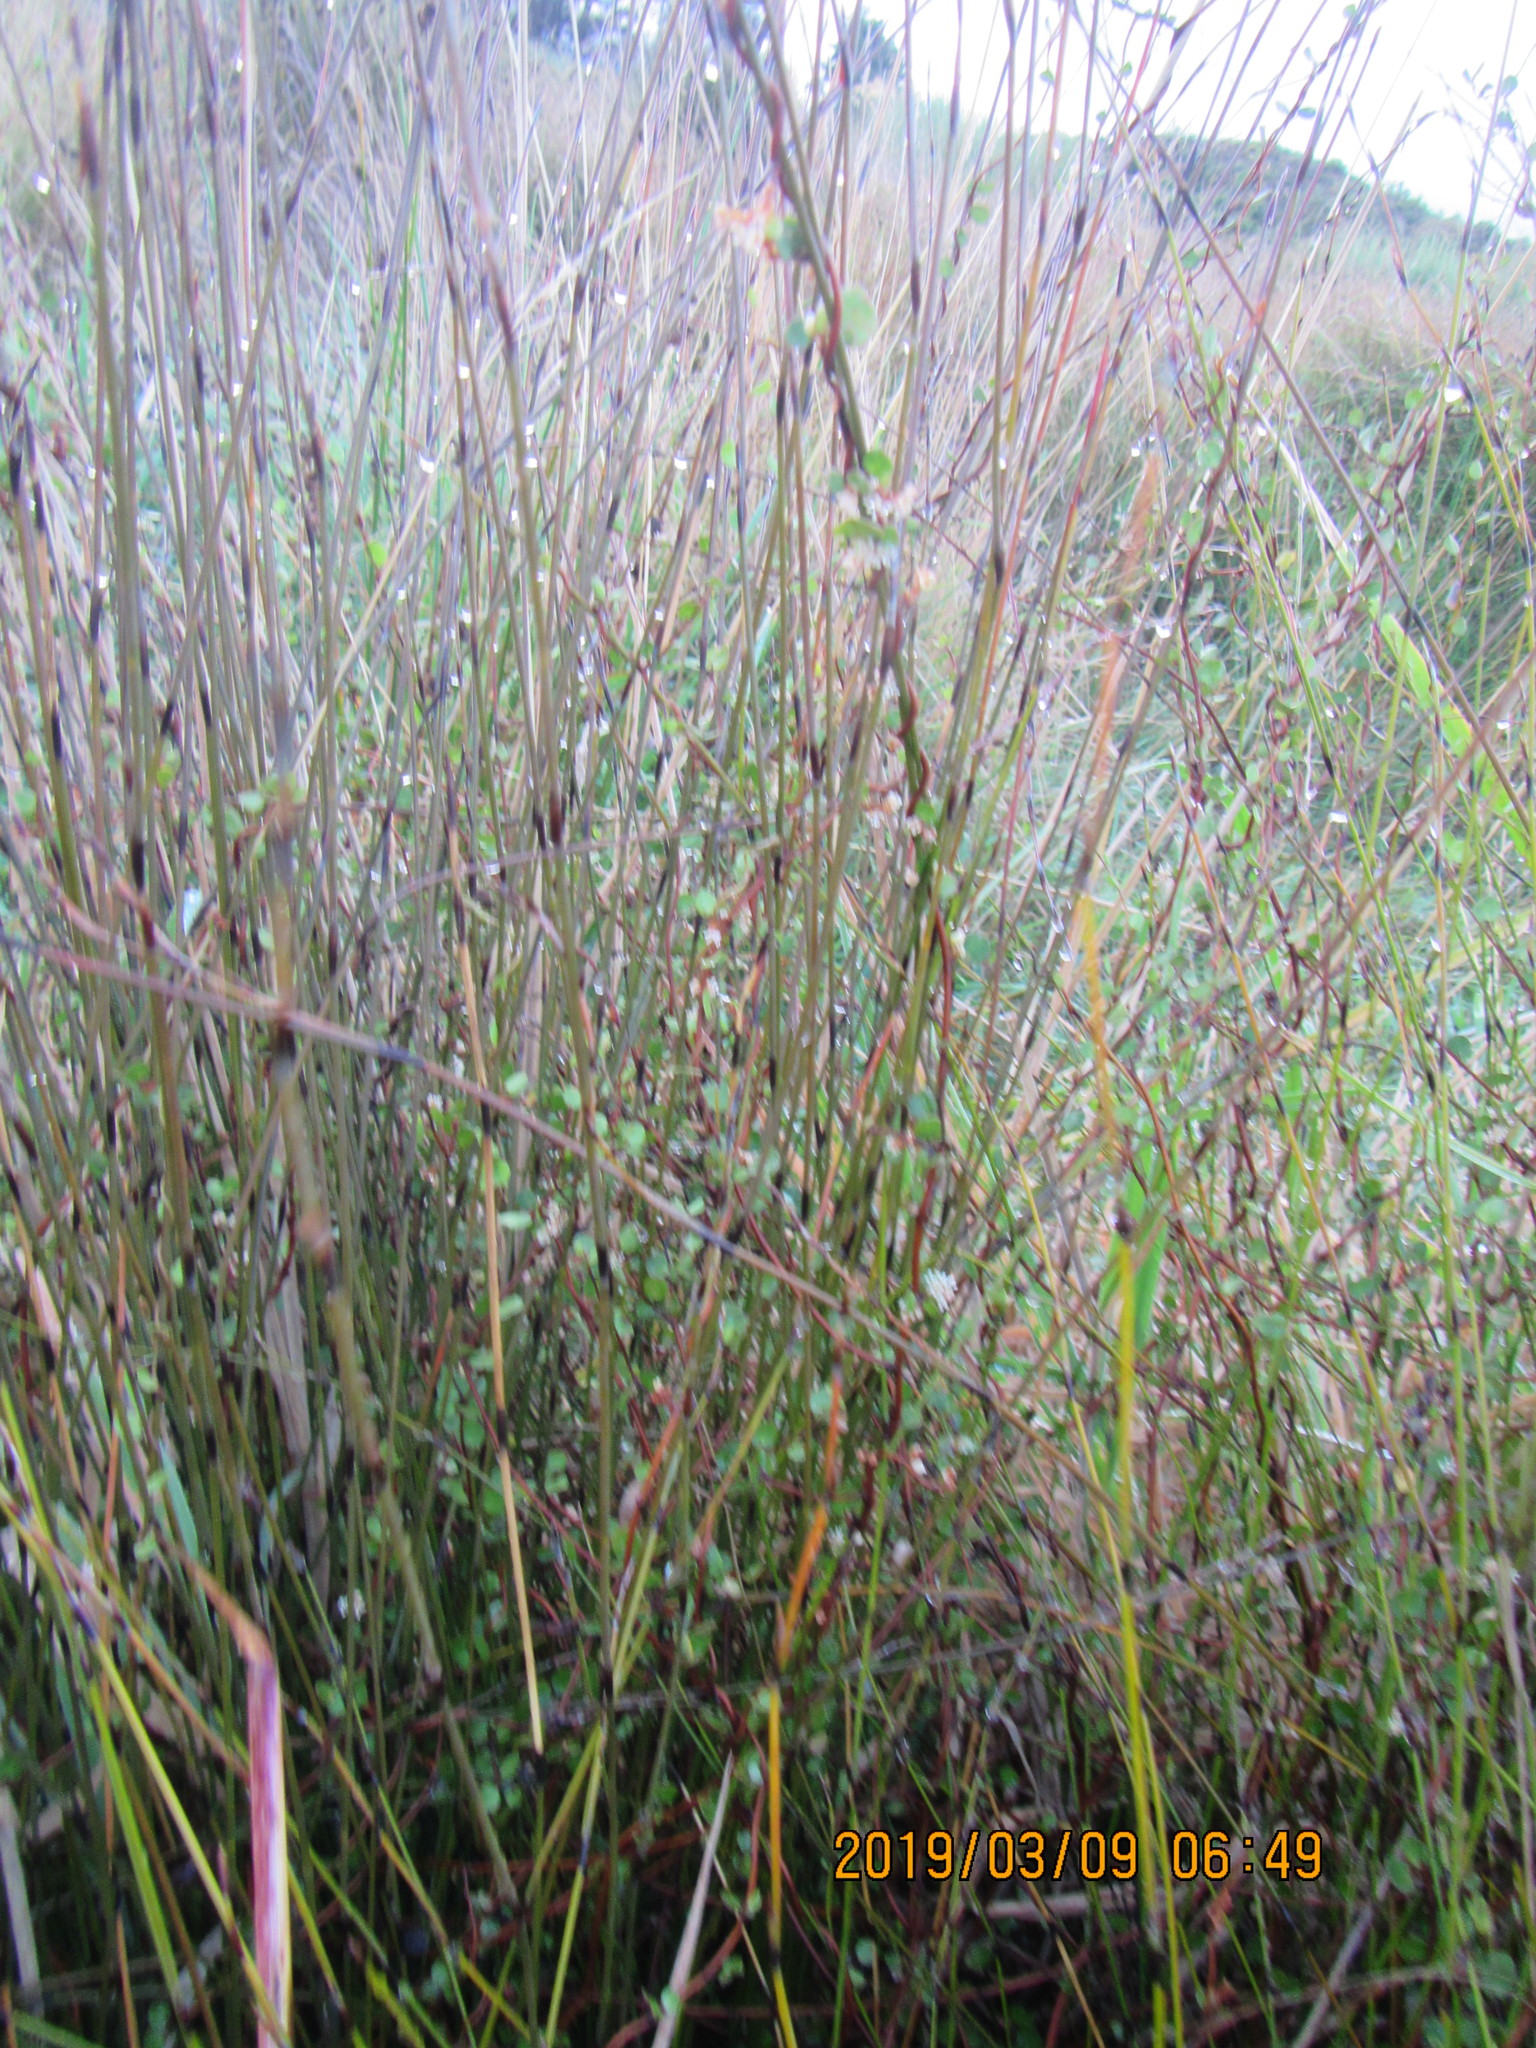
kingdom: Plantae
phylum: Tracheophyta
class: Magnoliopsida
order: Caryophyllales
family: Polygonaceae
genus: Muehlenbeckia
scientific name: Muehlenbeckia complexa
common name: Wireplant
